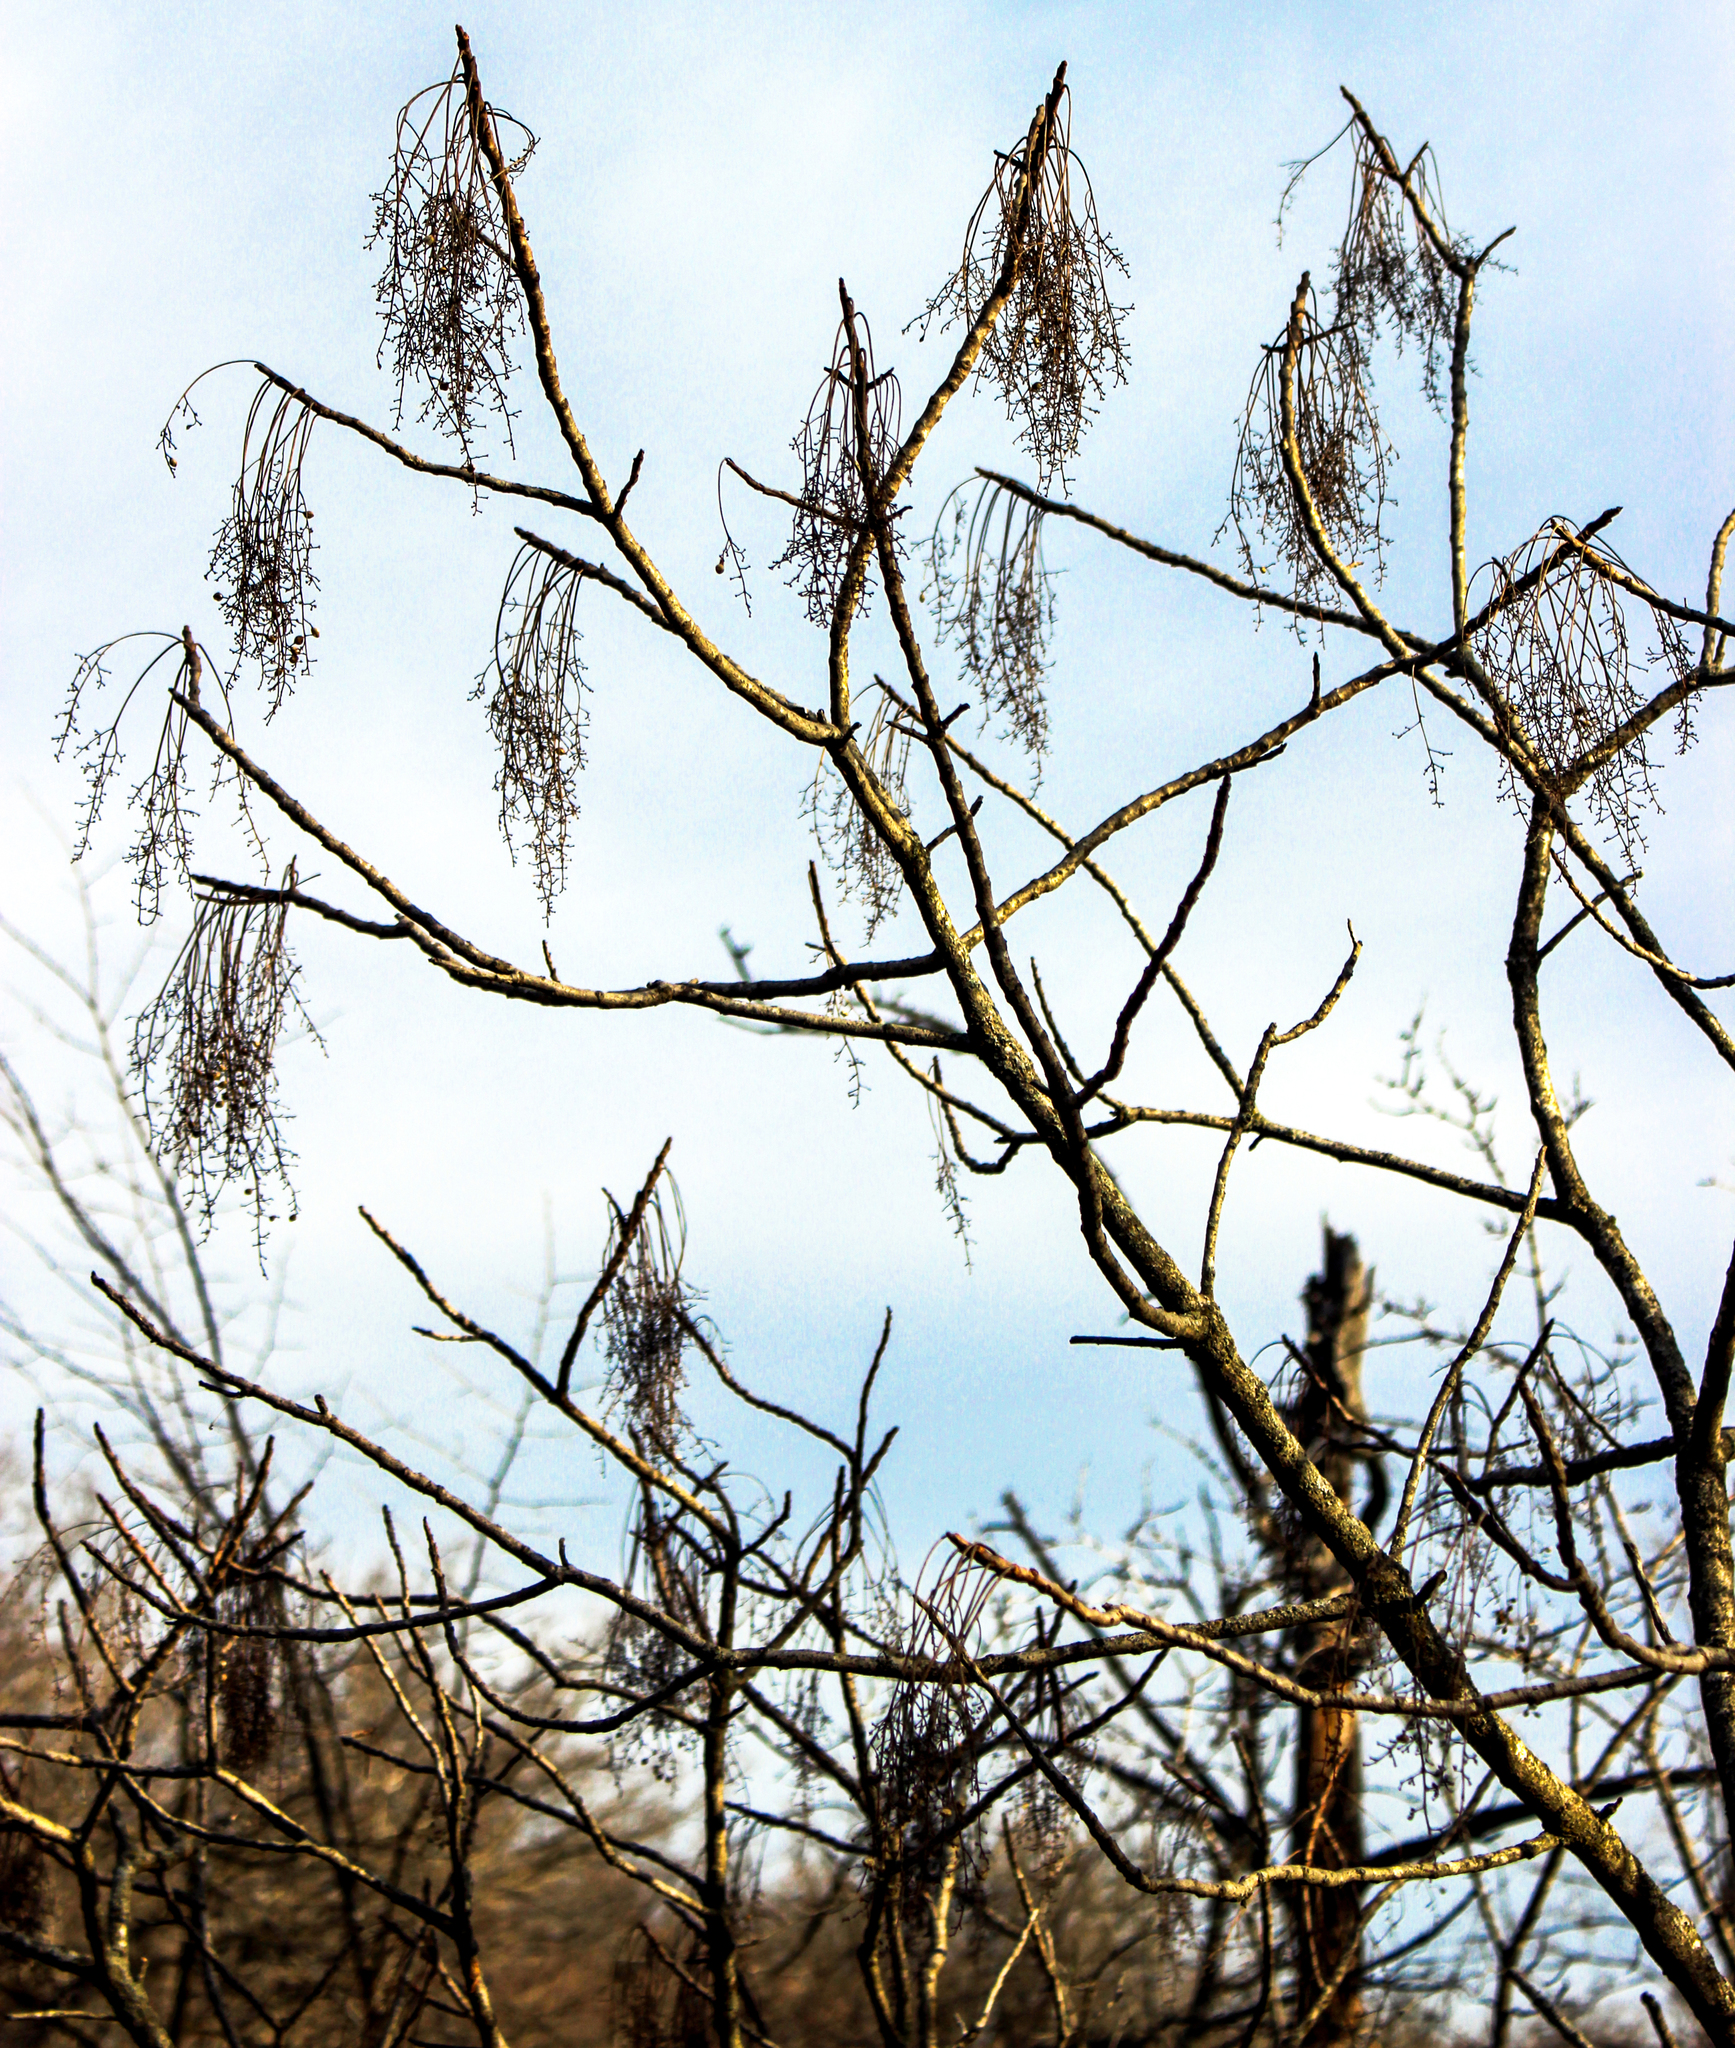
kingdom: Plantae
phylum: Tracheophyta
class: Magnoliopsida
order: Sapindales
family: Anacardiaceae
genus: Toxicodendron
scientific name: Toxicodendron vernix
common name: Poison sumac
